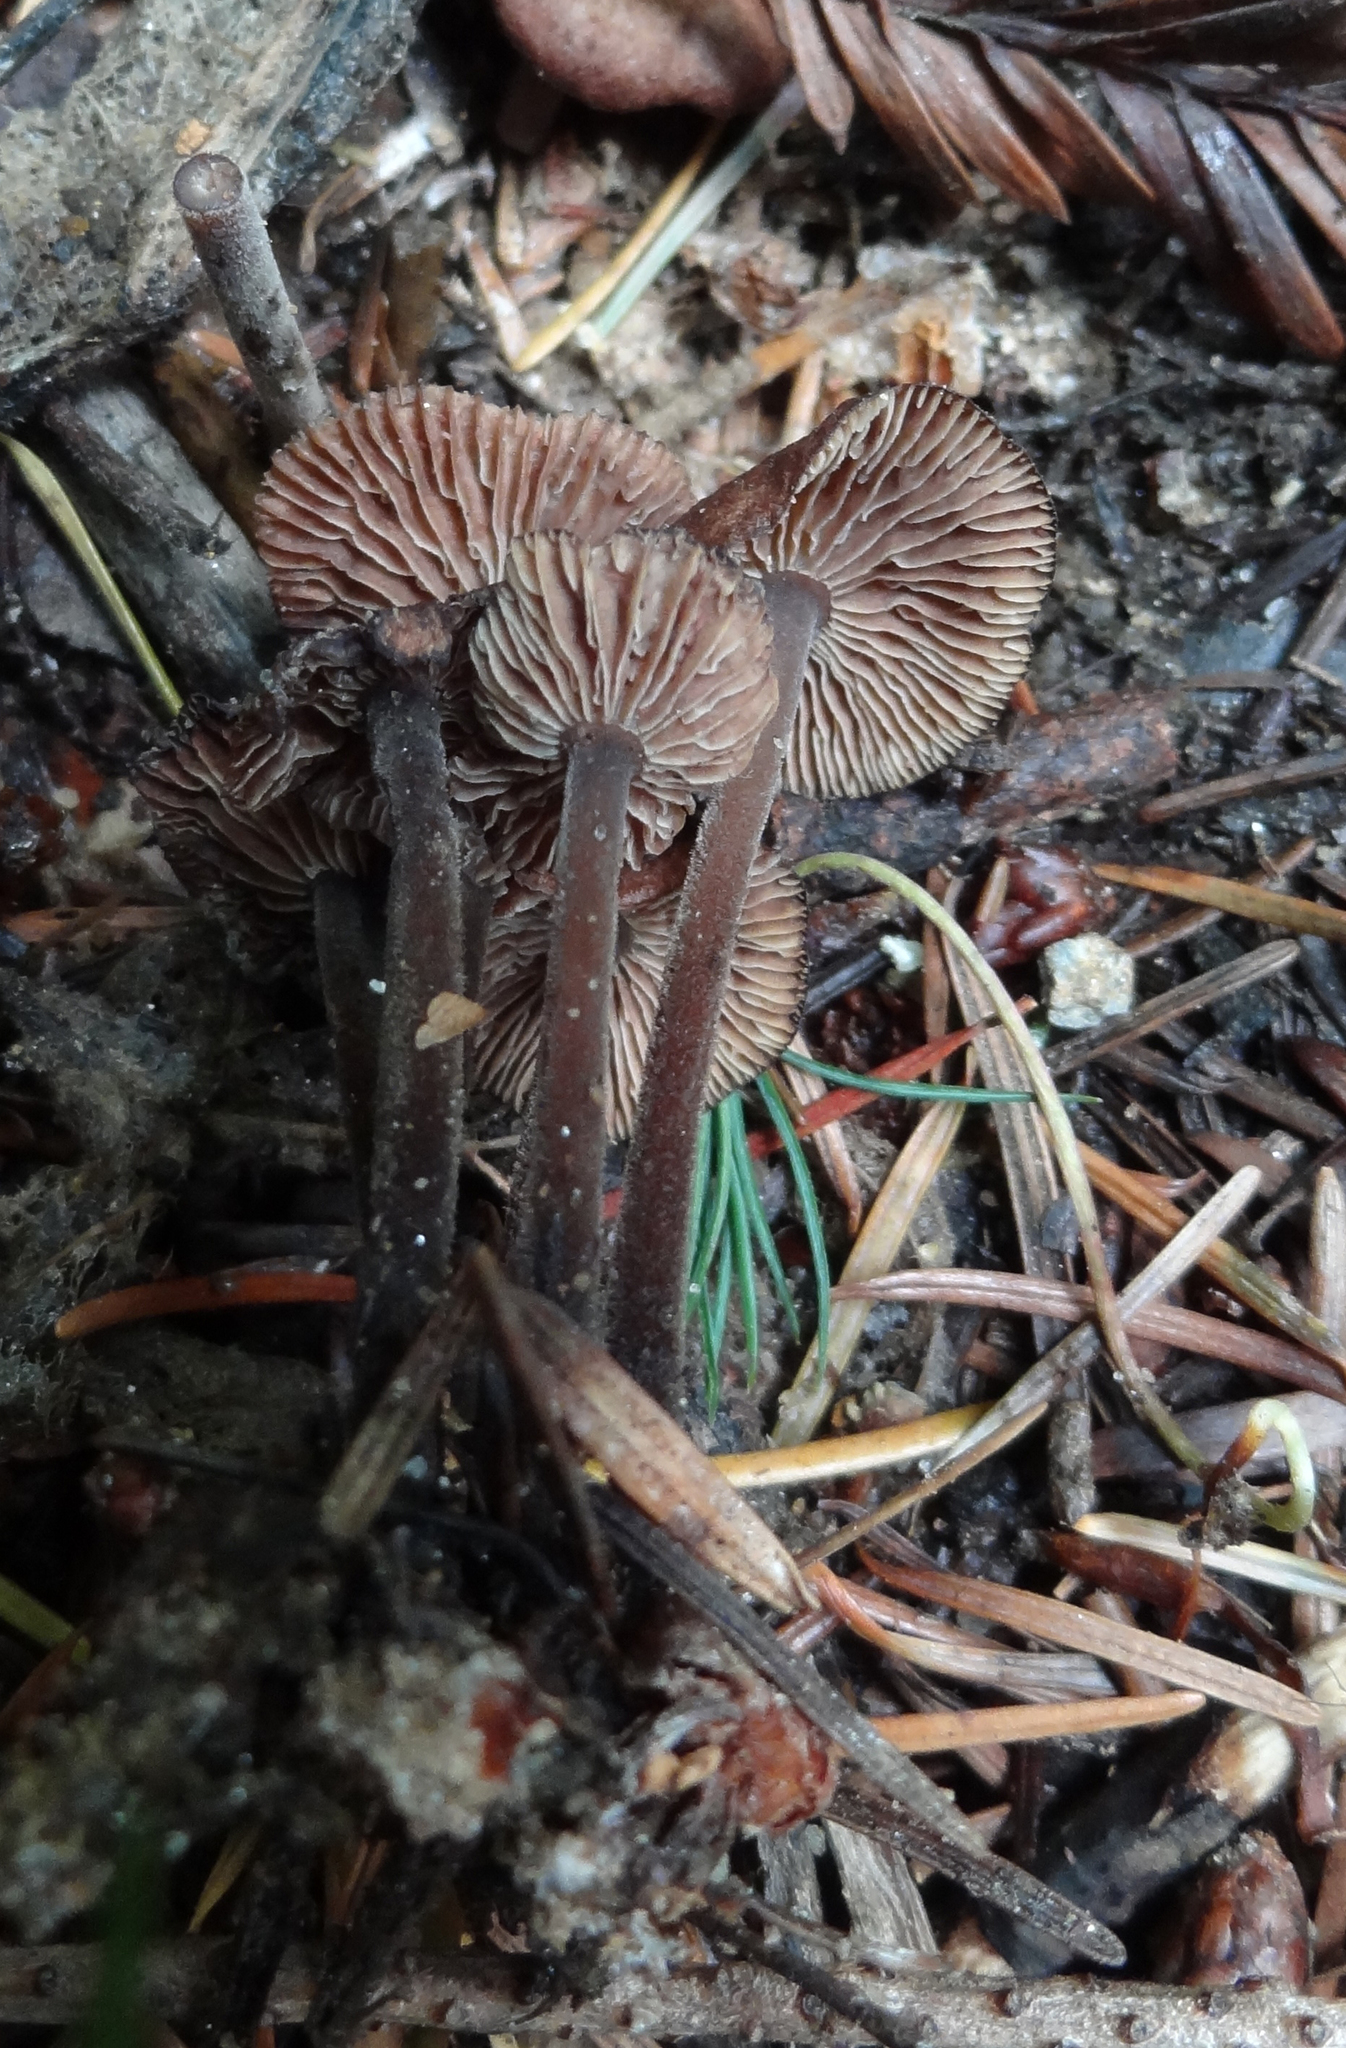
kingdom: Fungi
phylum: Basidiomycota
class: Agaricomycetes
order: Agaricales
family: Omphalotaceae
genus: Collybiopsis
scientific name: Collybiopsis villosipes
